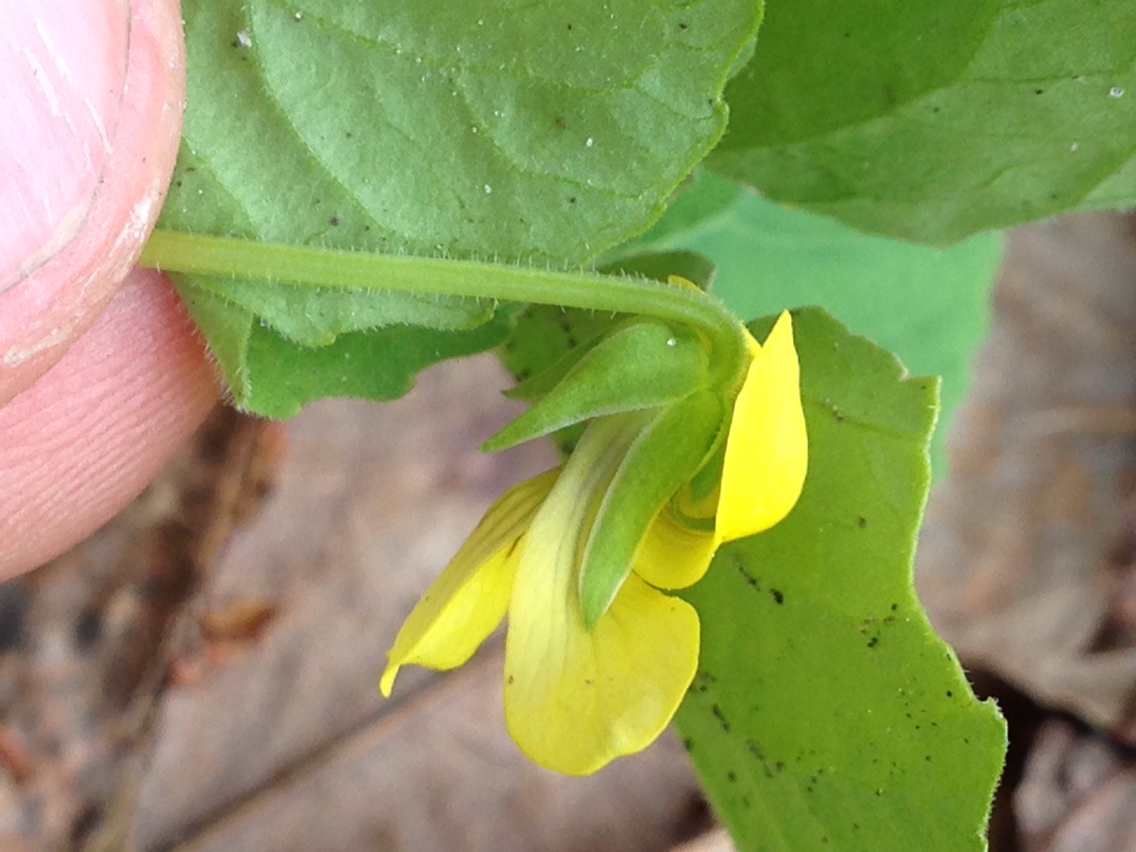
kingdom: Plantae
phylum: Tracheophyta
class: Magnoliopsida
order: Malpighiales
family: Violaceae
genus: Viola
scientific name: Viola eriocarpa
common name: Smooth yellow violet
